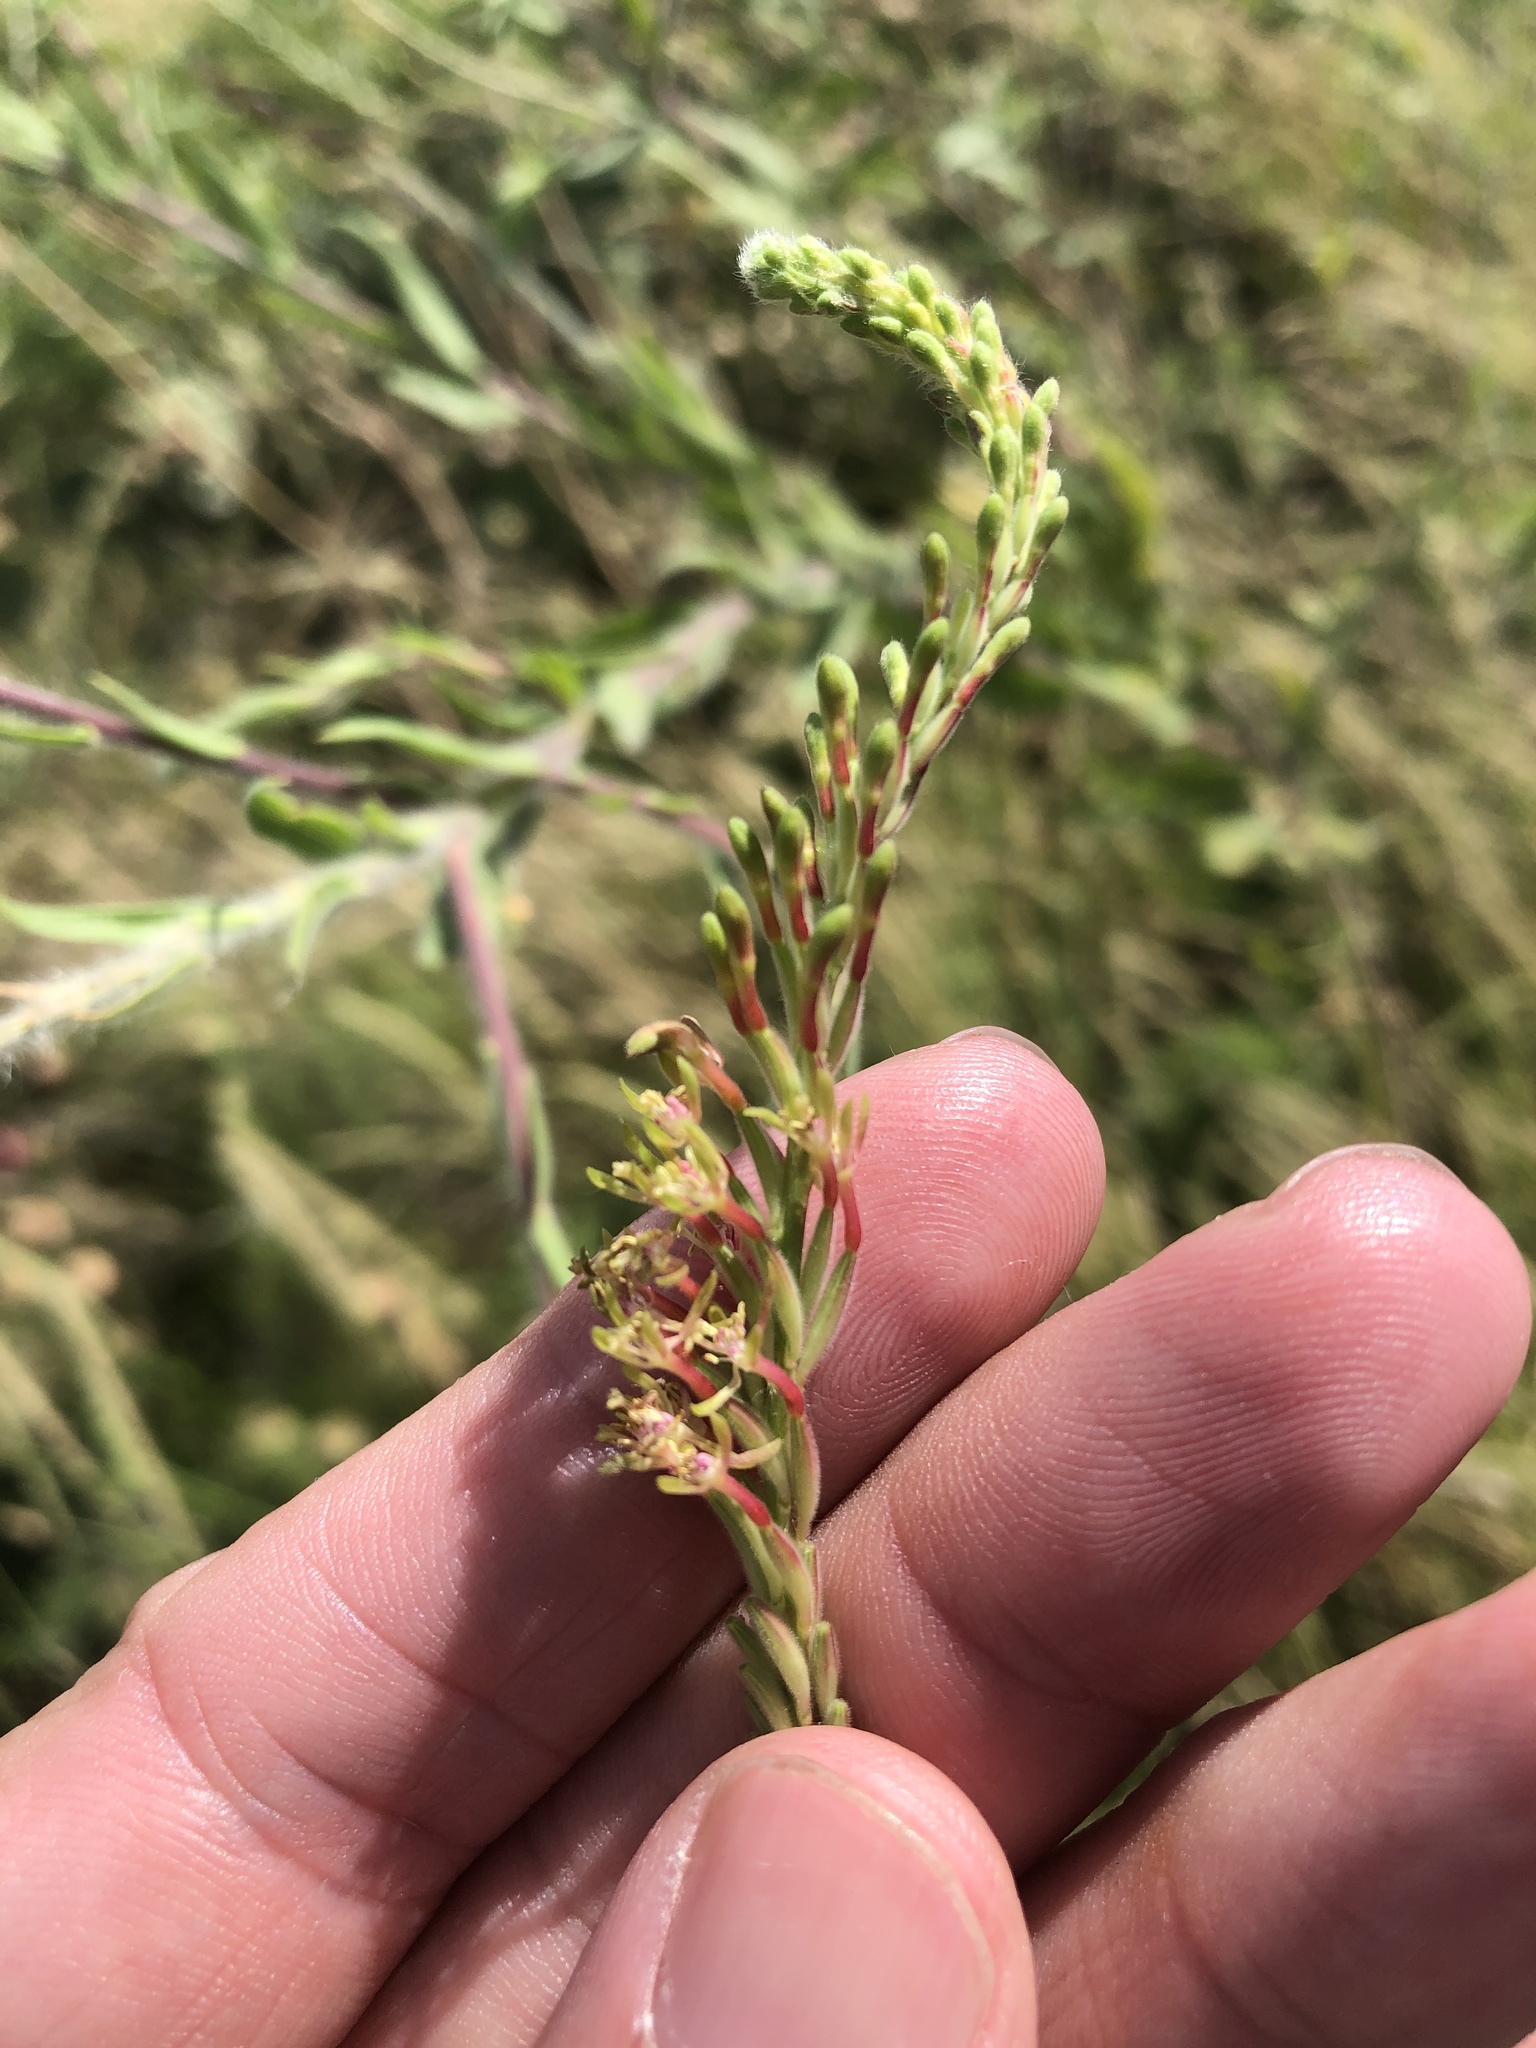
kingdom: Plantae
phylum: Tracheophyta
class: Magnoliopsida
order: Myrtales
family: Onagraceae
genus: Oenothera
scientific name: Oenothera curtiflora
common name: Velvetweed
